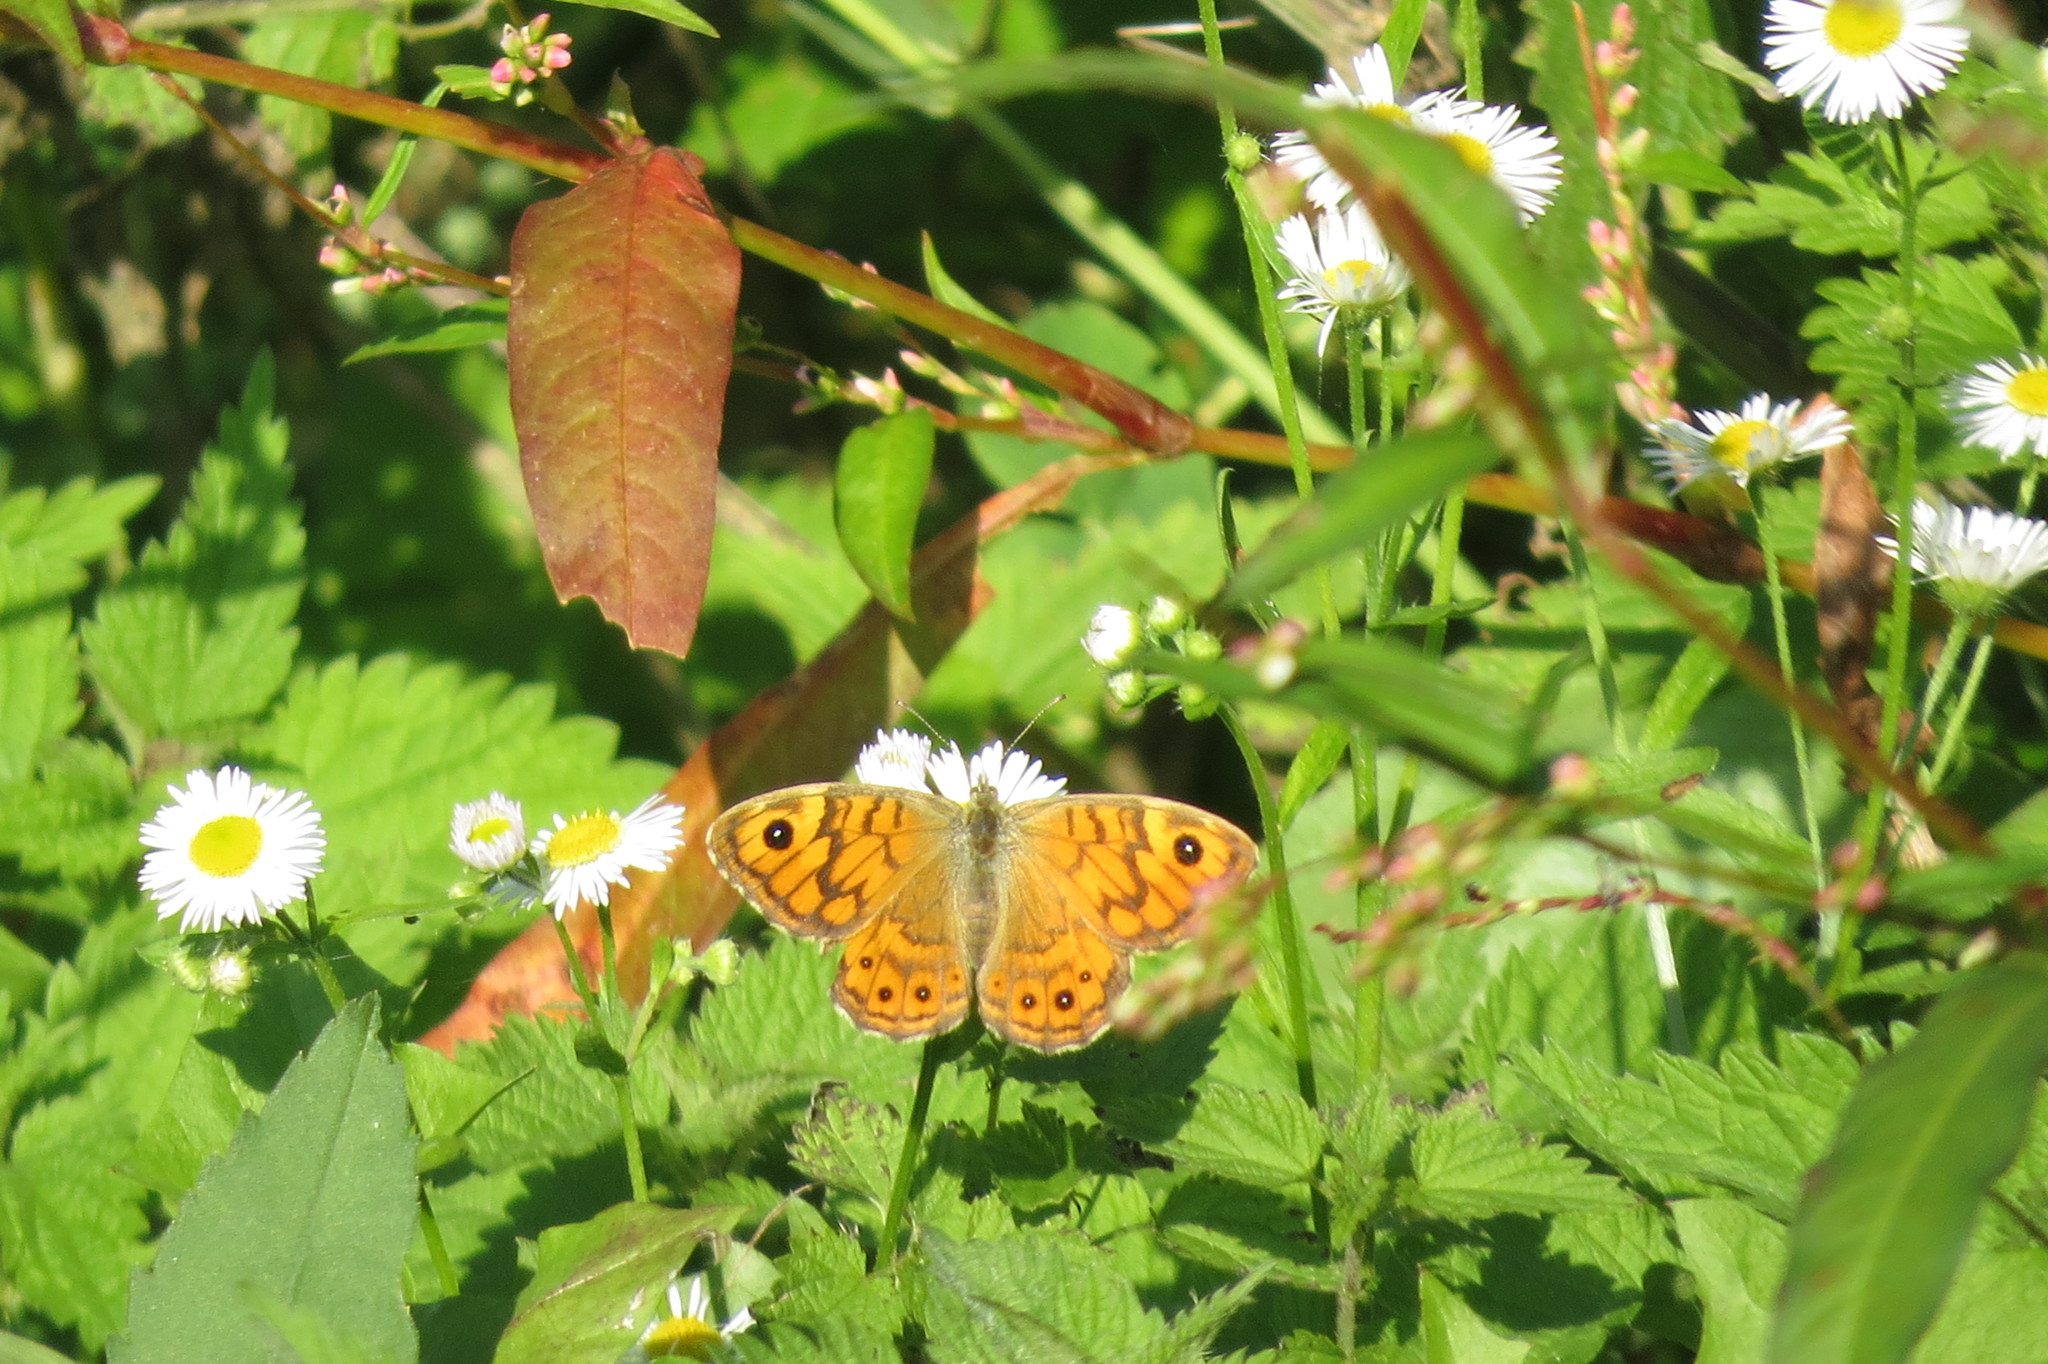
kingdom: Animalia
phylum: Arthropoda
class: Insecta
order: Lepidoptera
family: Nymphalidae
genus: Pararge
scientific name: Pararge Lasiommata megera
